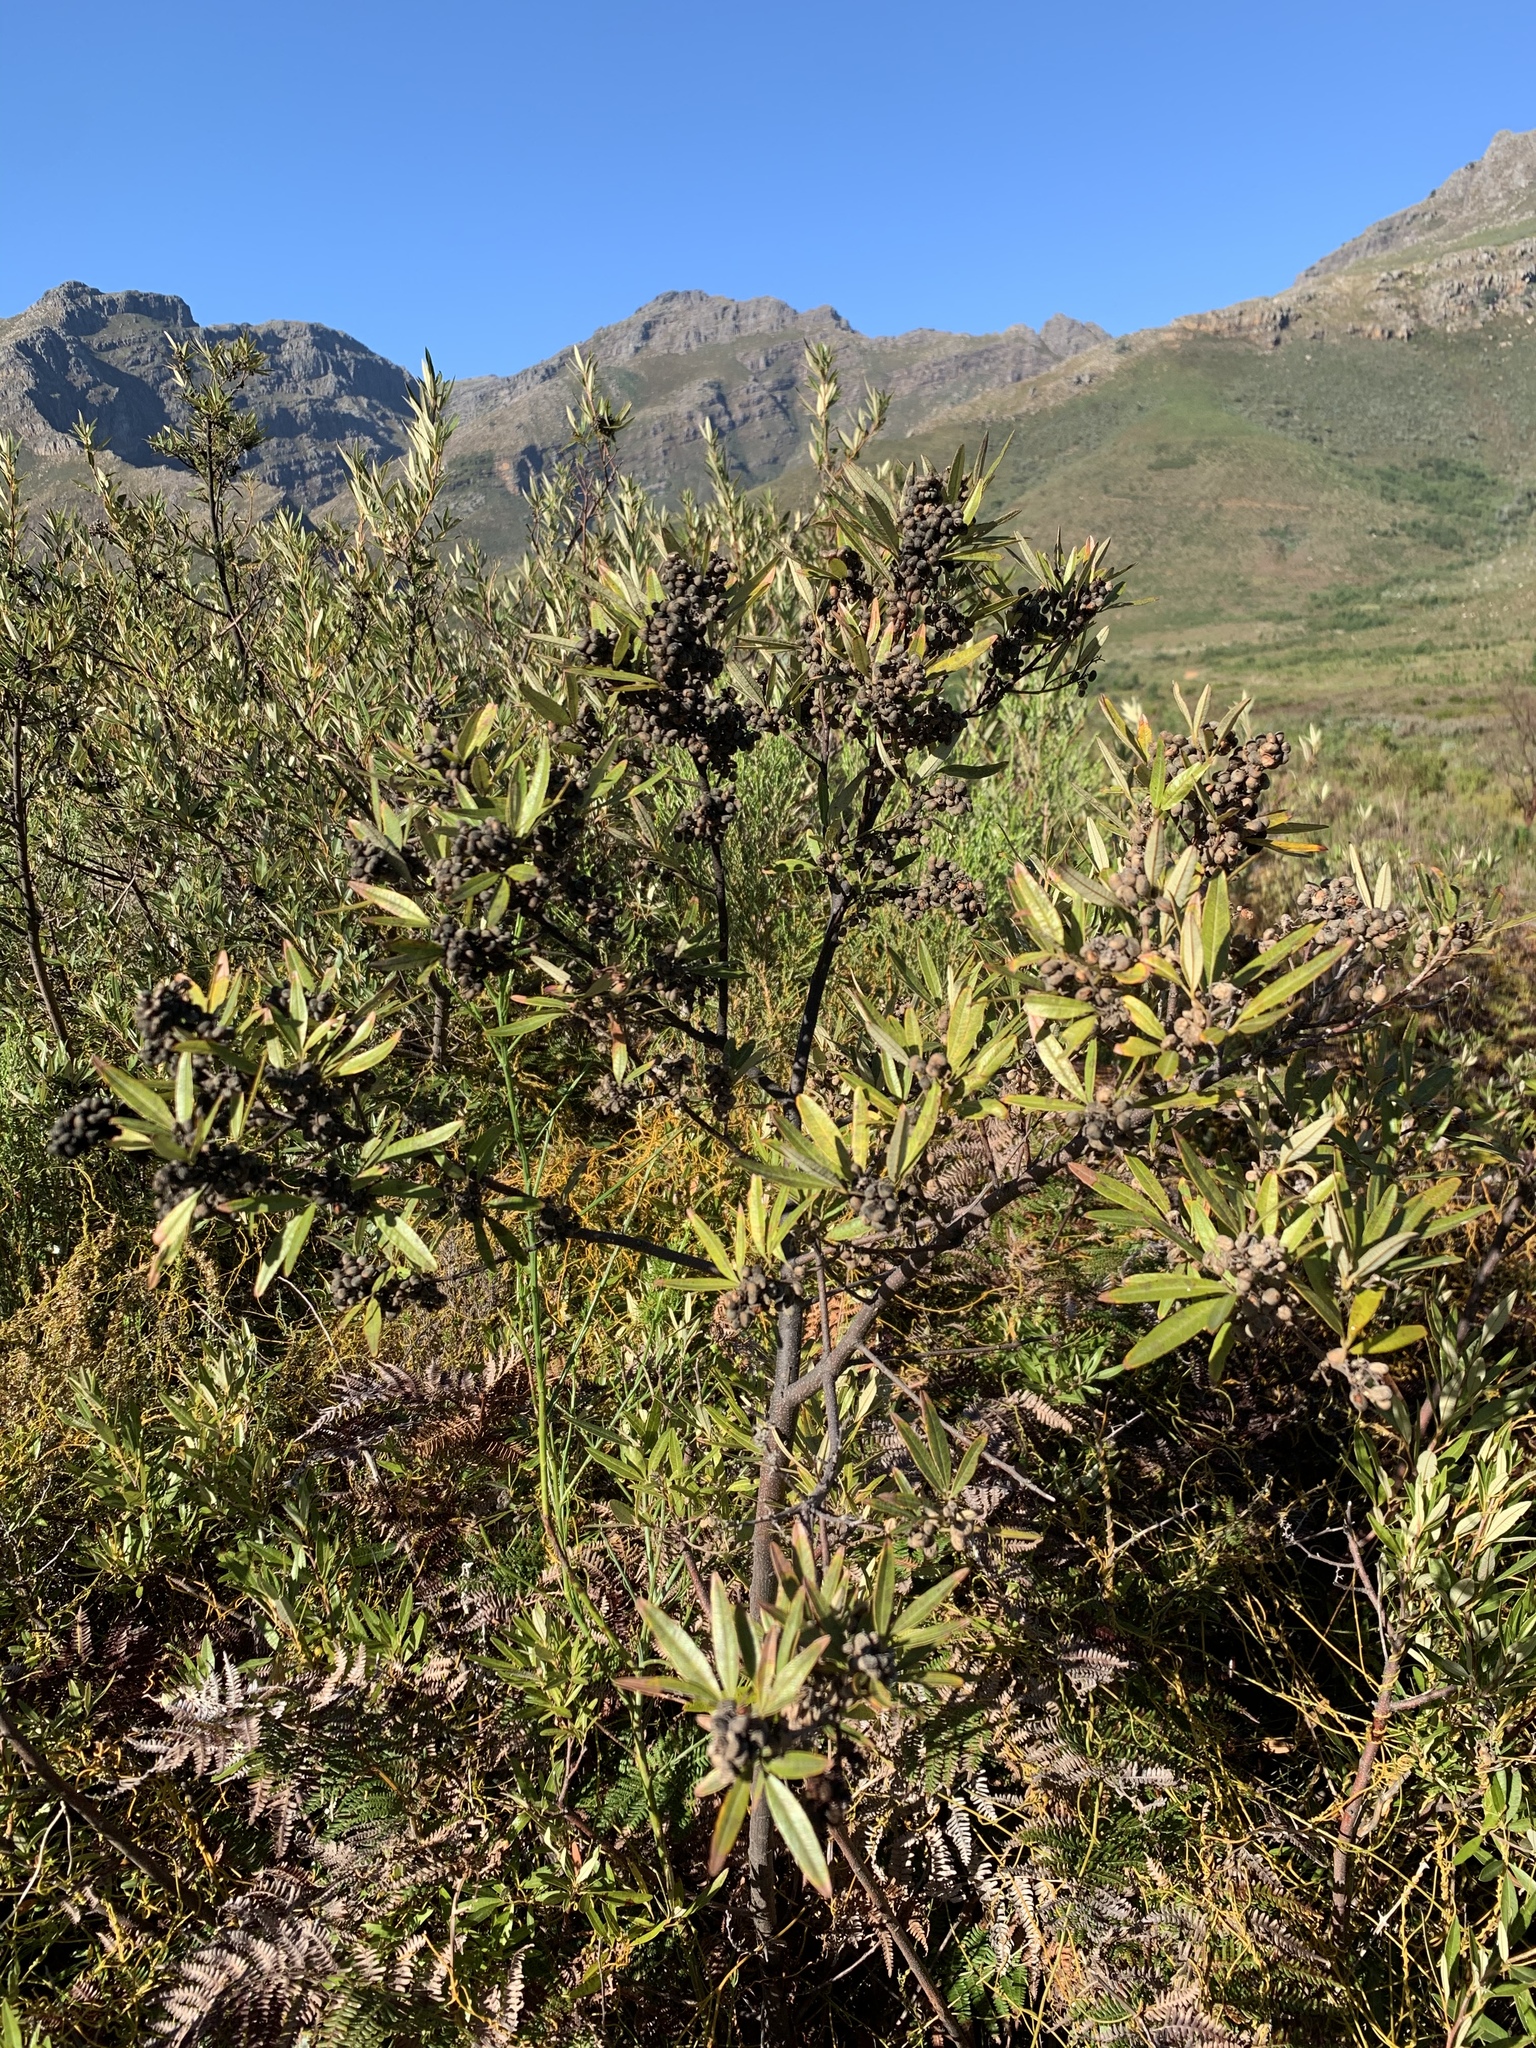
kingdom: Plantae
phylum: Tracheophyta
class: Magnoliopsida
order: Sapindales
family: Anacardiaceae
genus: Searsia
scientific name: Searsia angustifolia
